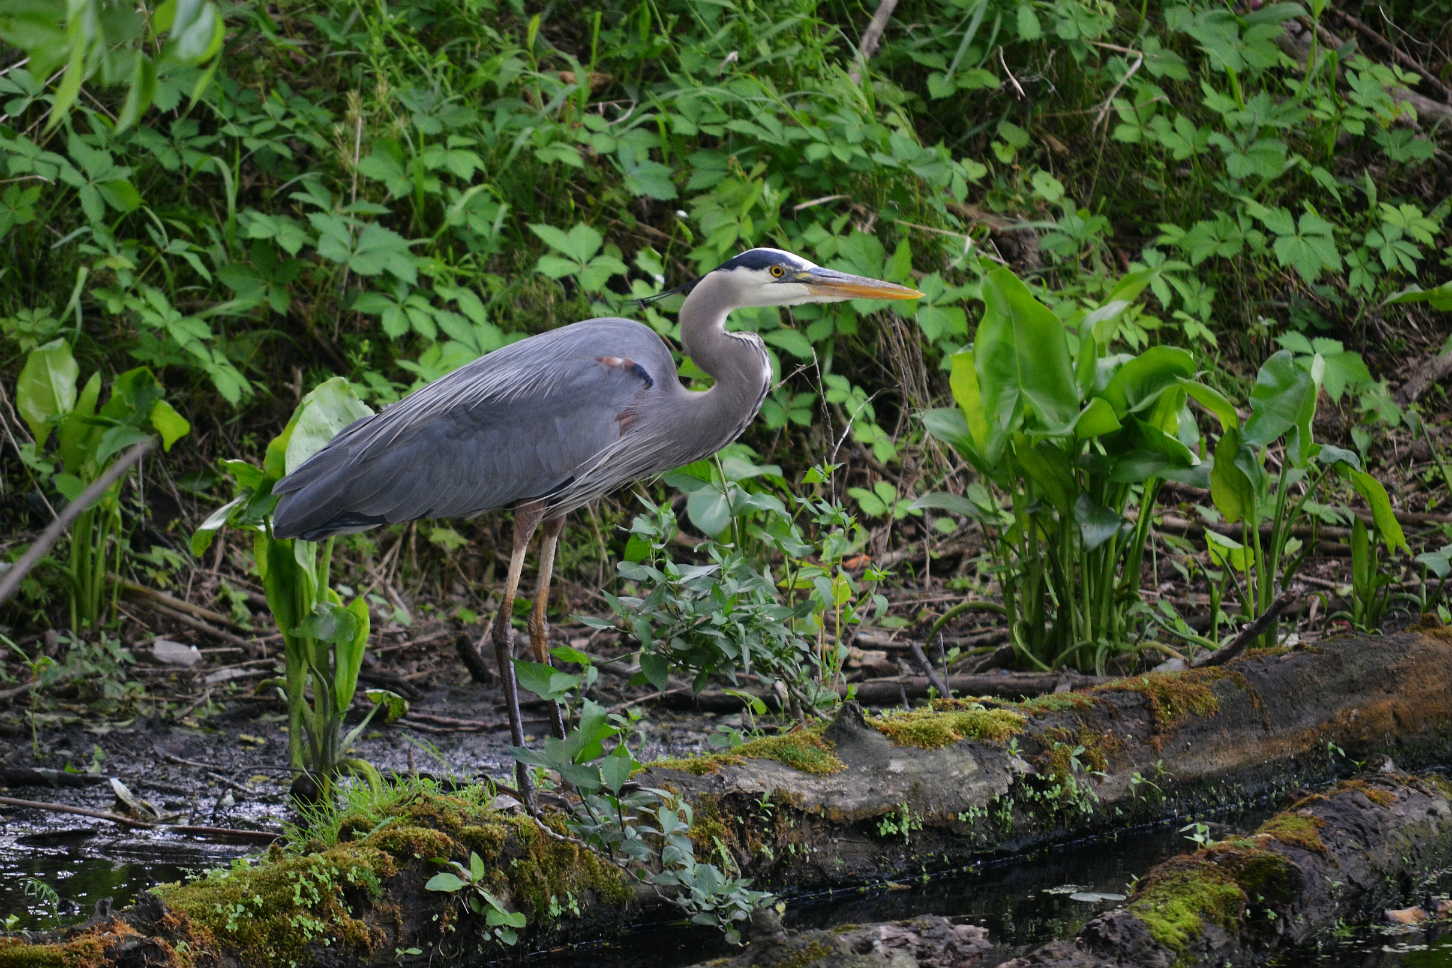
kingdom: Animalia
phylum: Chordata
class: Aves
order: Pelecaniformes
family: Ardeidae
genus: Ardea
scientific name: Ardea herodias
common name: Great blue heron
